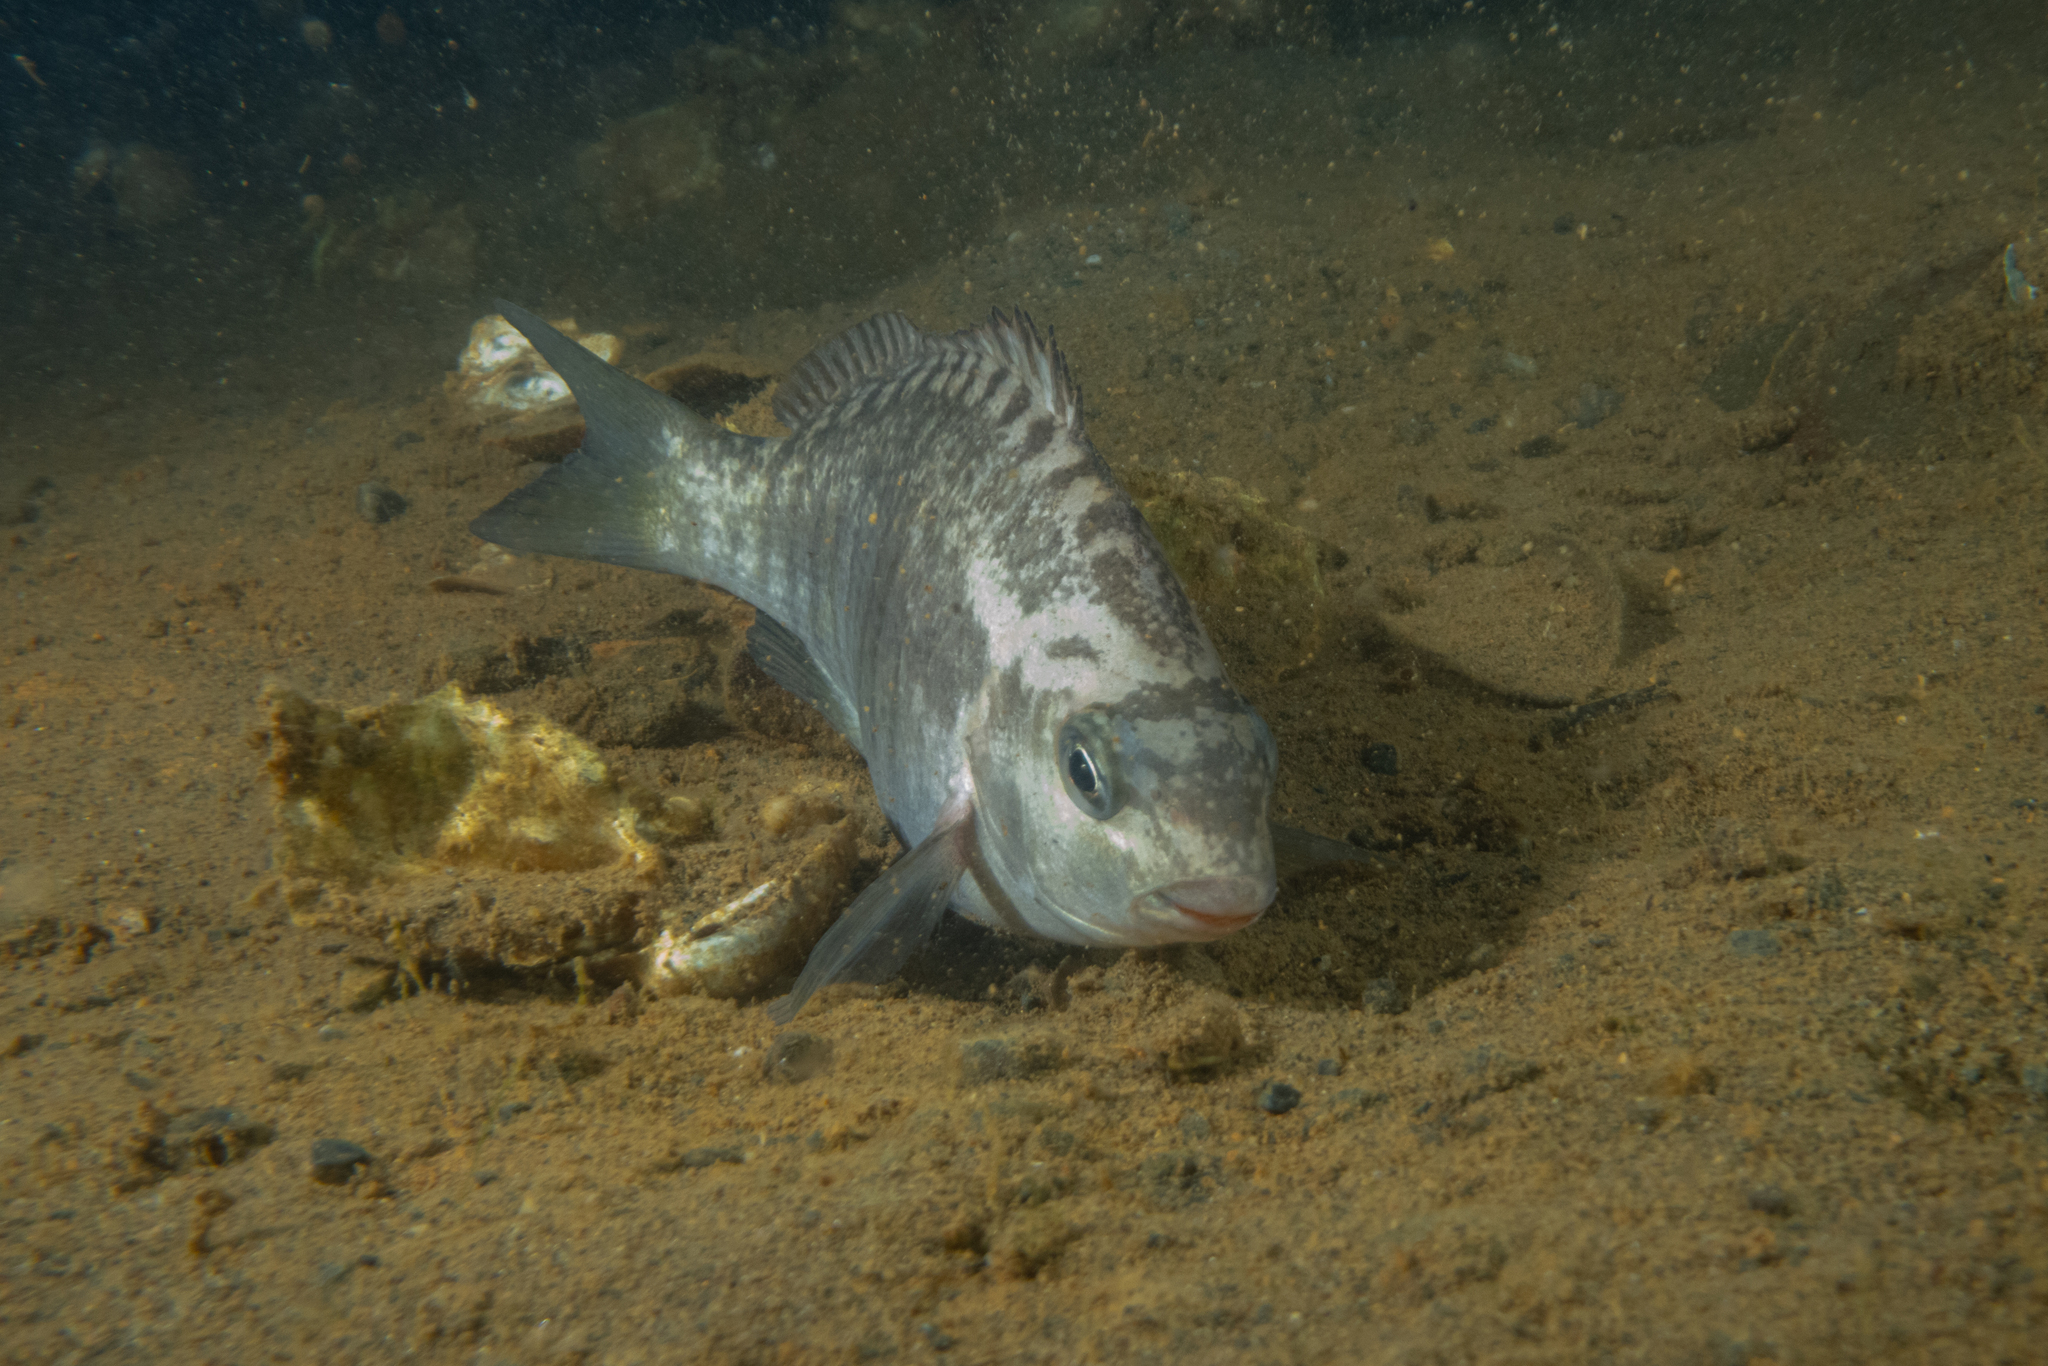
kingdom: Animalia
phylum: Chordata
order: Perciformes
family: Kyphosidae
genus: Girella
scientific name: Girella tricuspidata
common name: Parore
